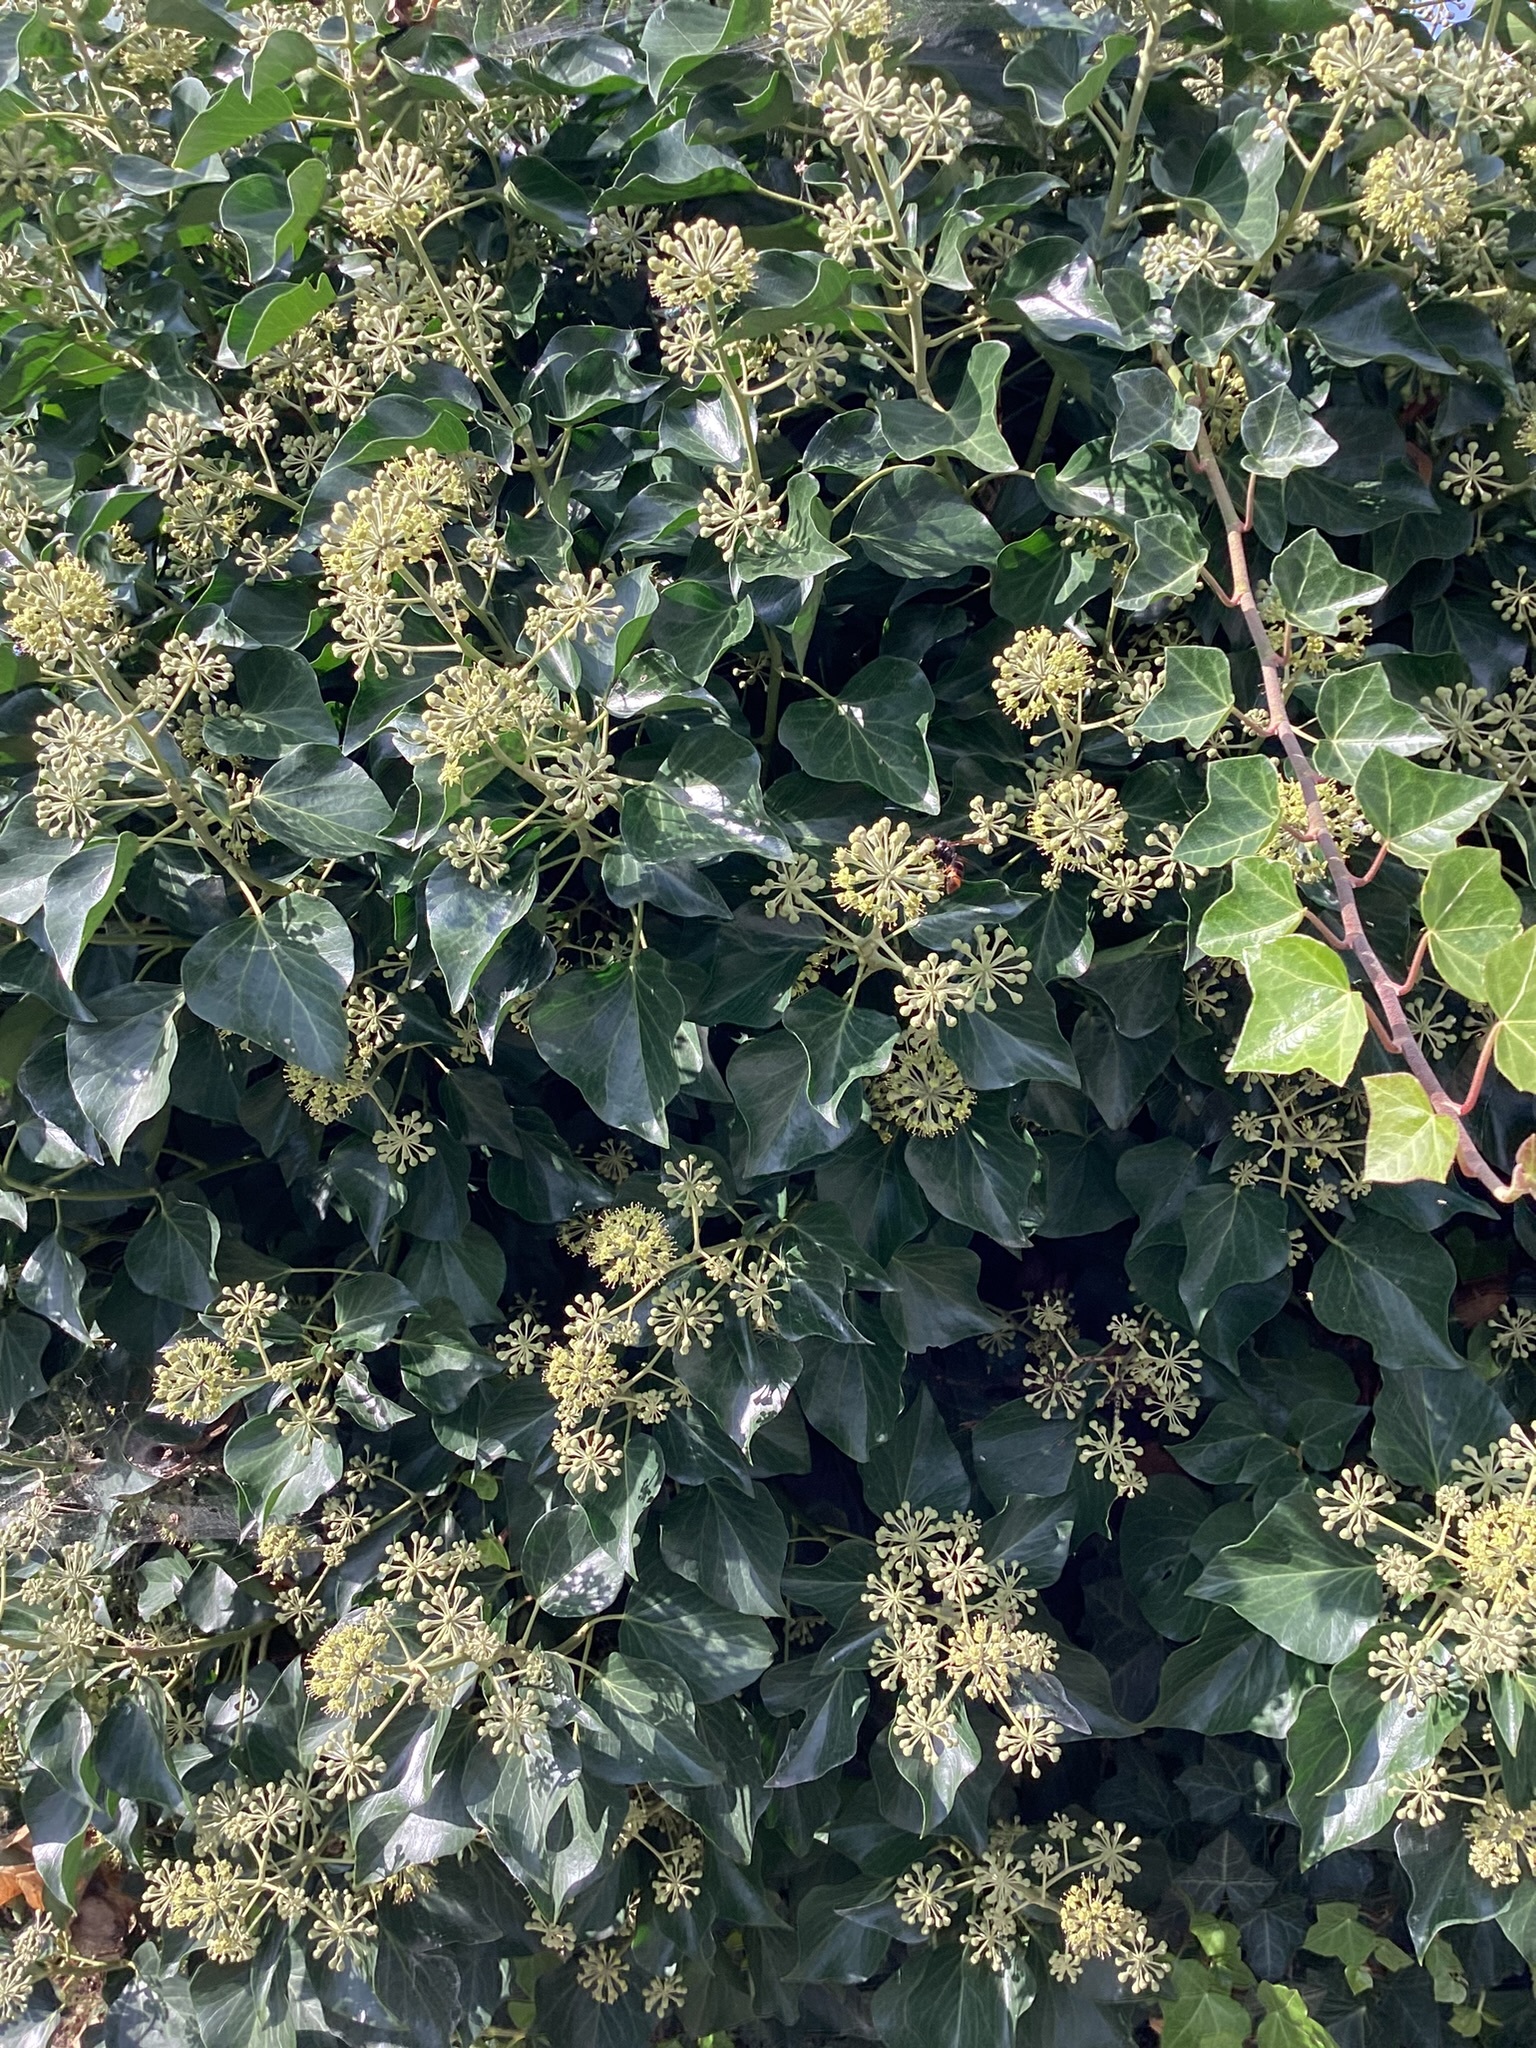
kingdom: Animalia
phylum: Arthropoda
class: Insecta
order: Hymenoptera
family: Vespidae
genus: Vespa
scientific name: Vespa velutina
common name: Asian hornet
